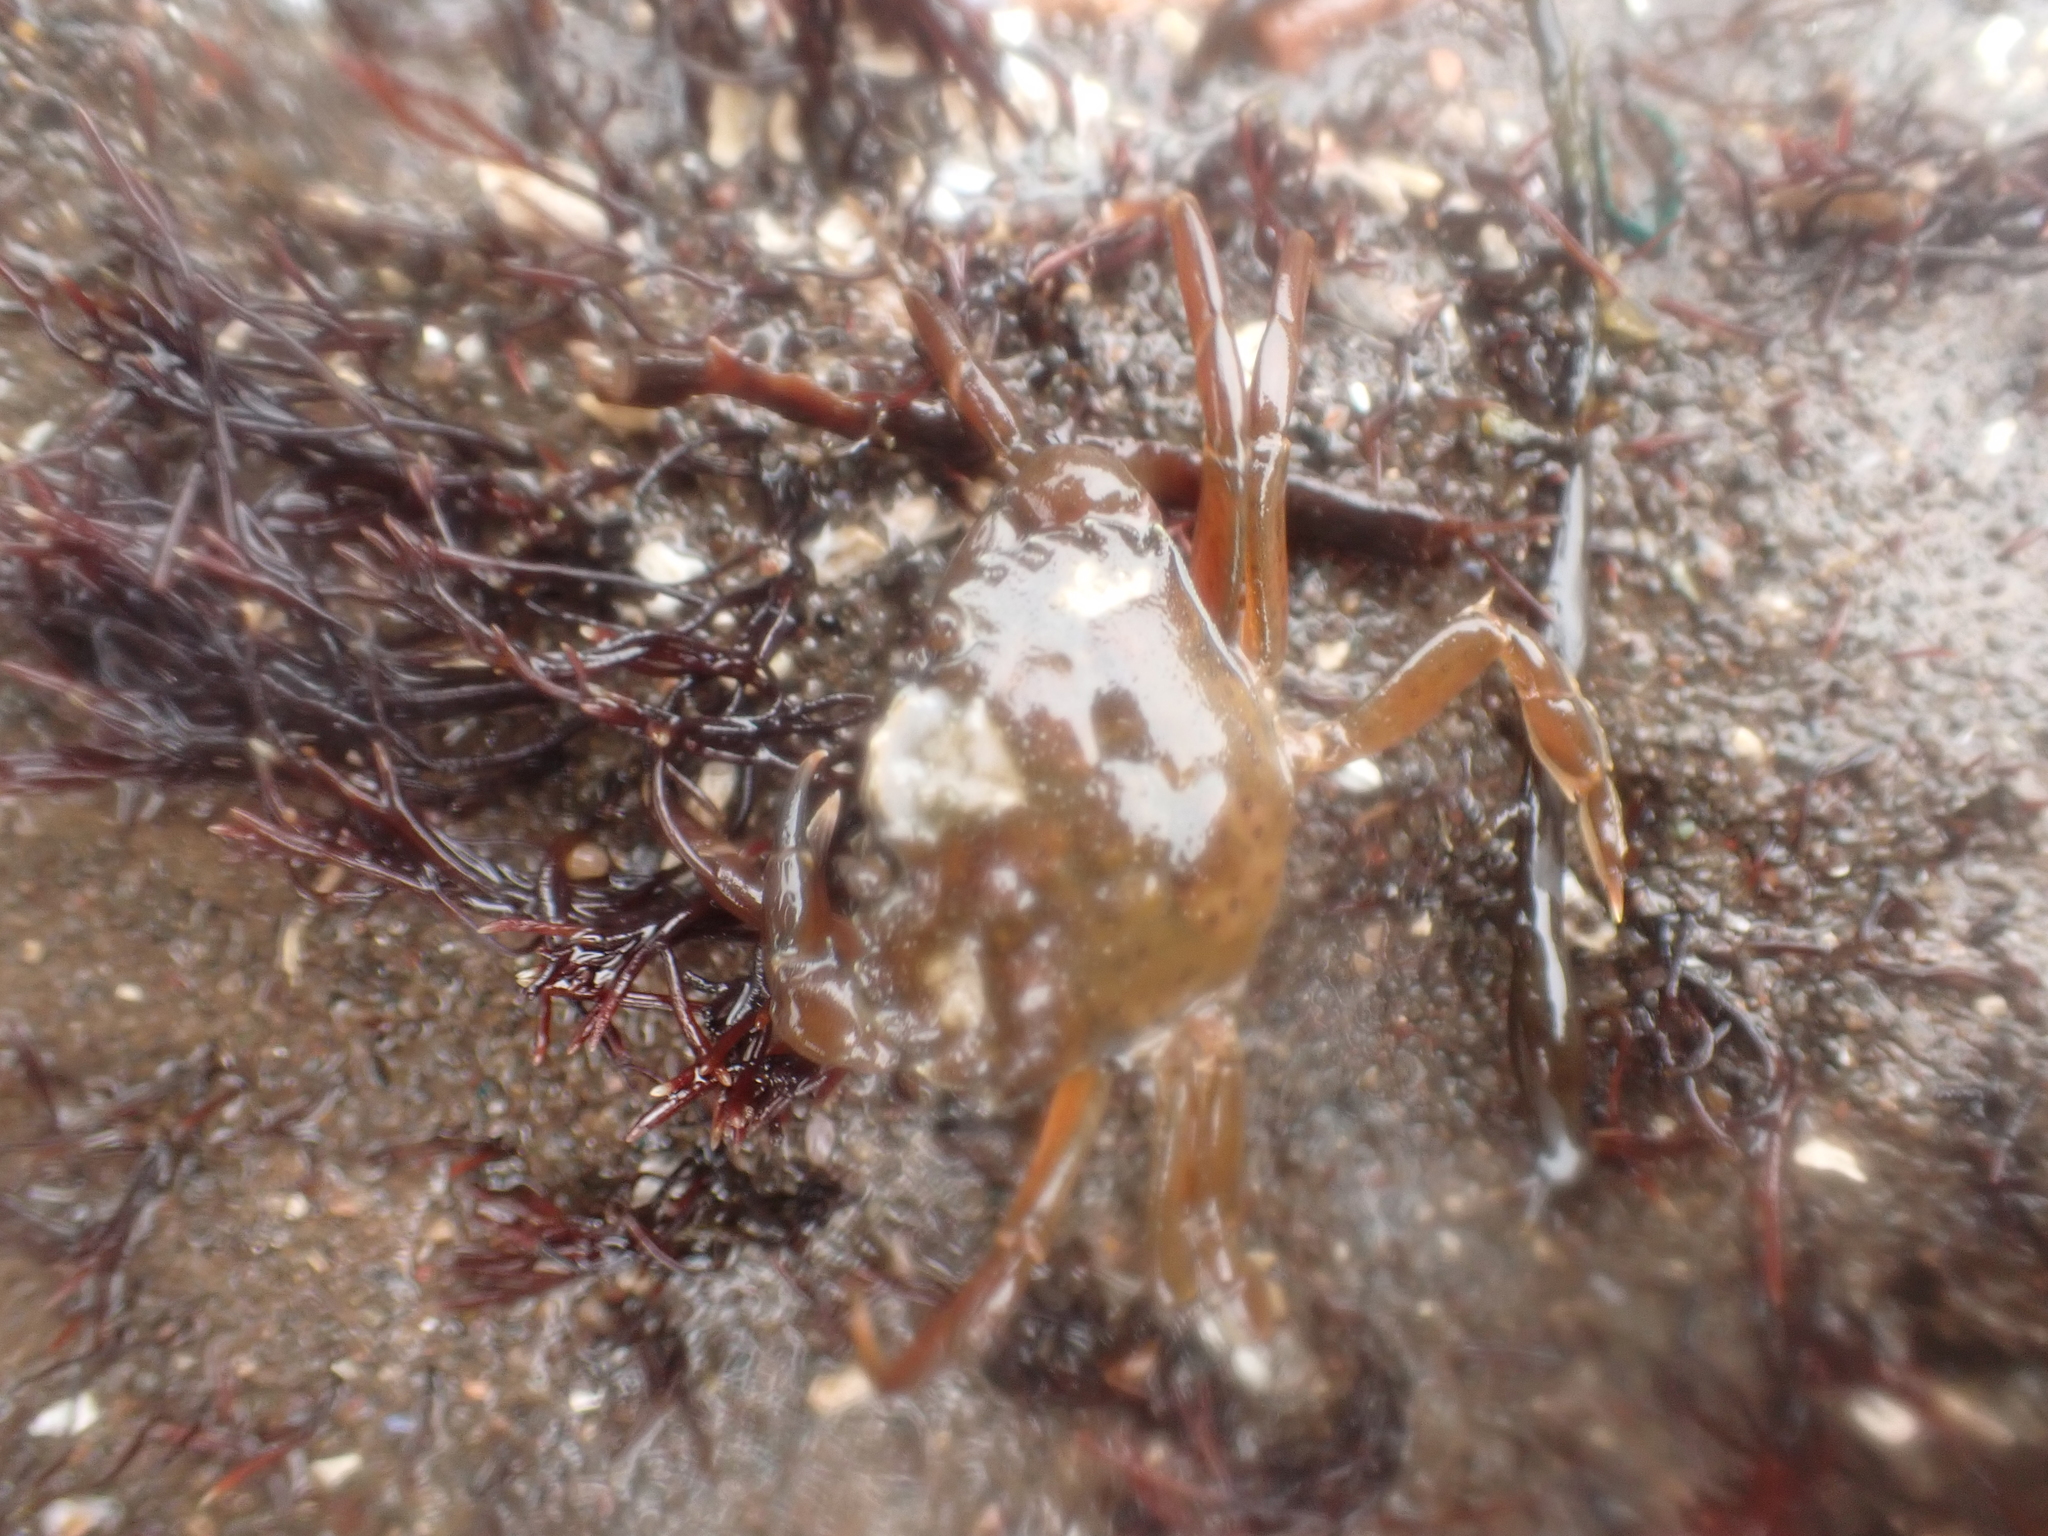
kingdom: Animalia
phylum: Arthropoda
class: Malacostraca
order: Decapoda
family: Carcinidae
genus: Carcinus
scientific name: Carcinus maenas
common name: European green crab
